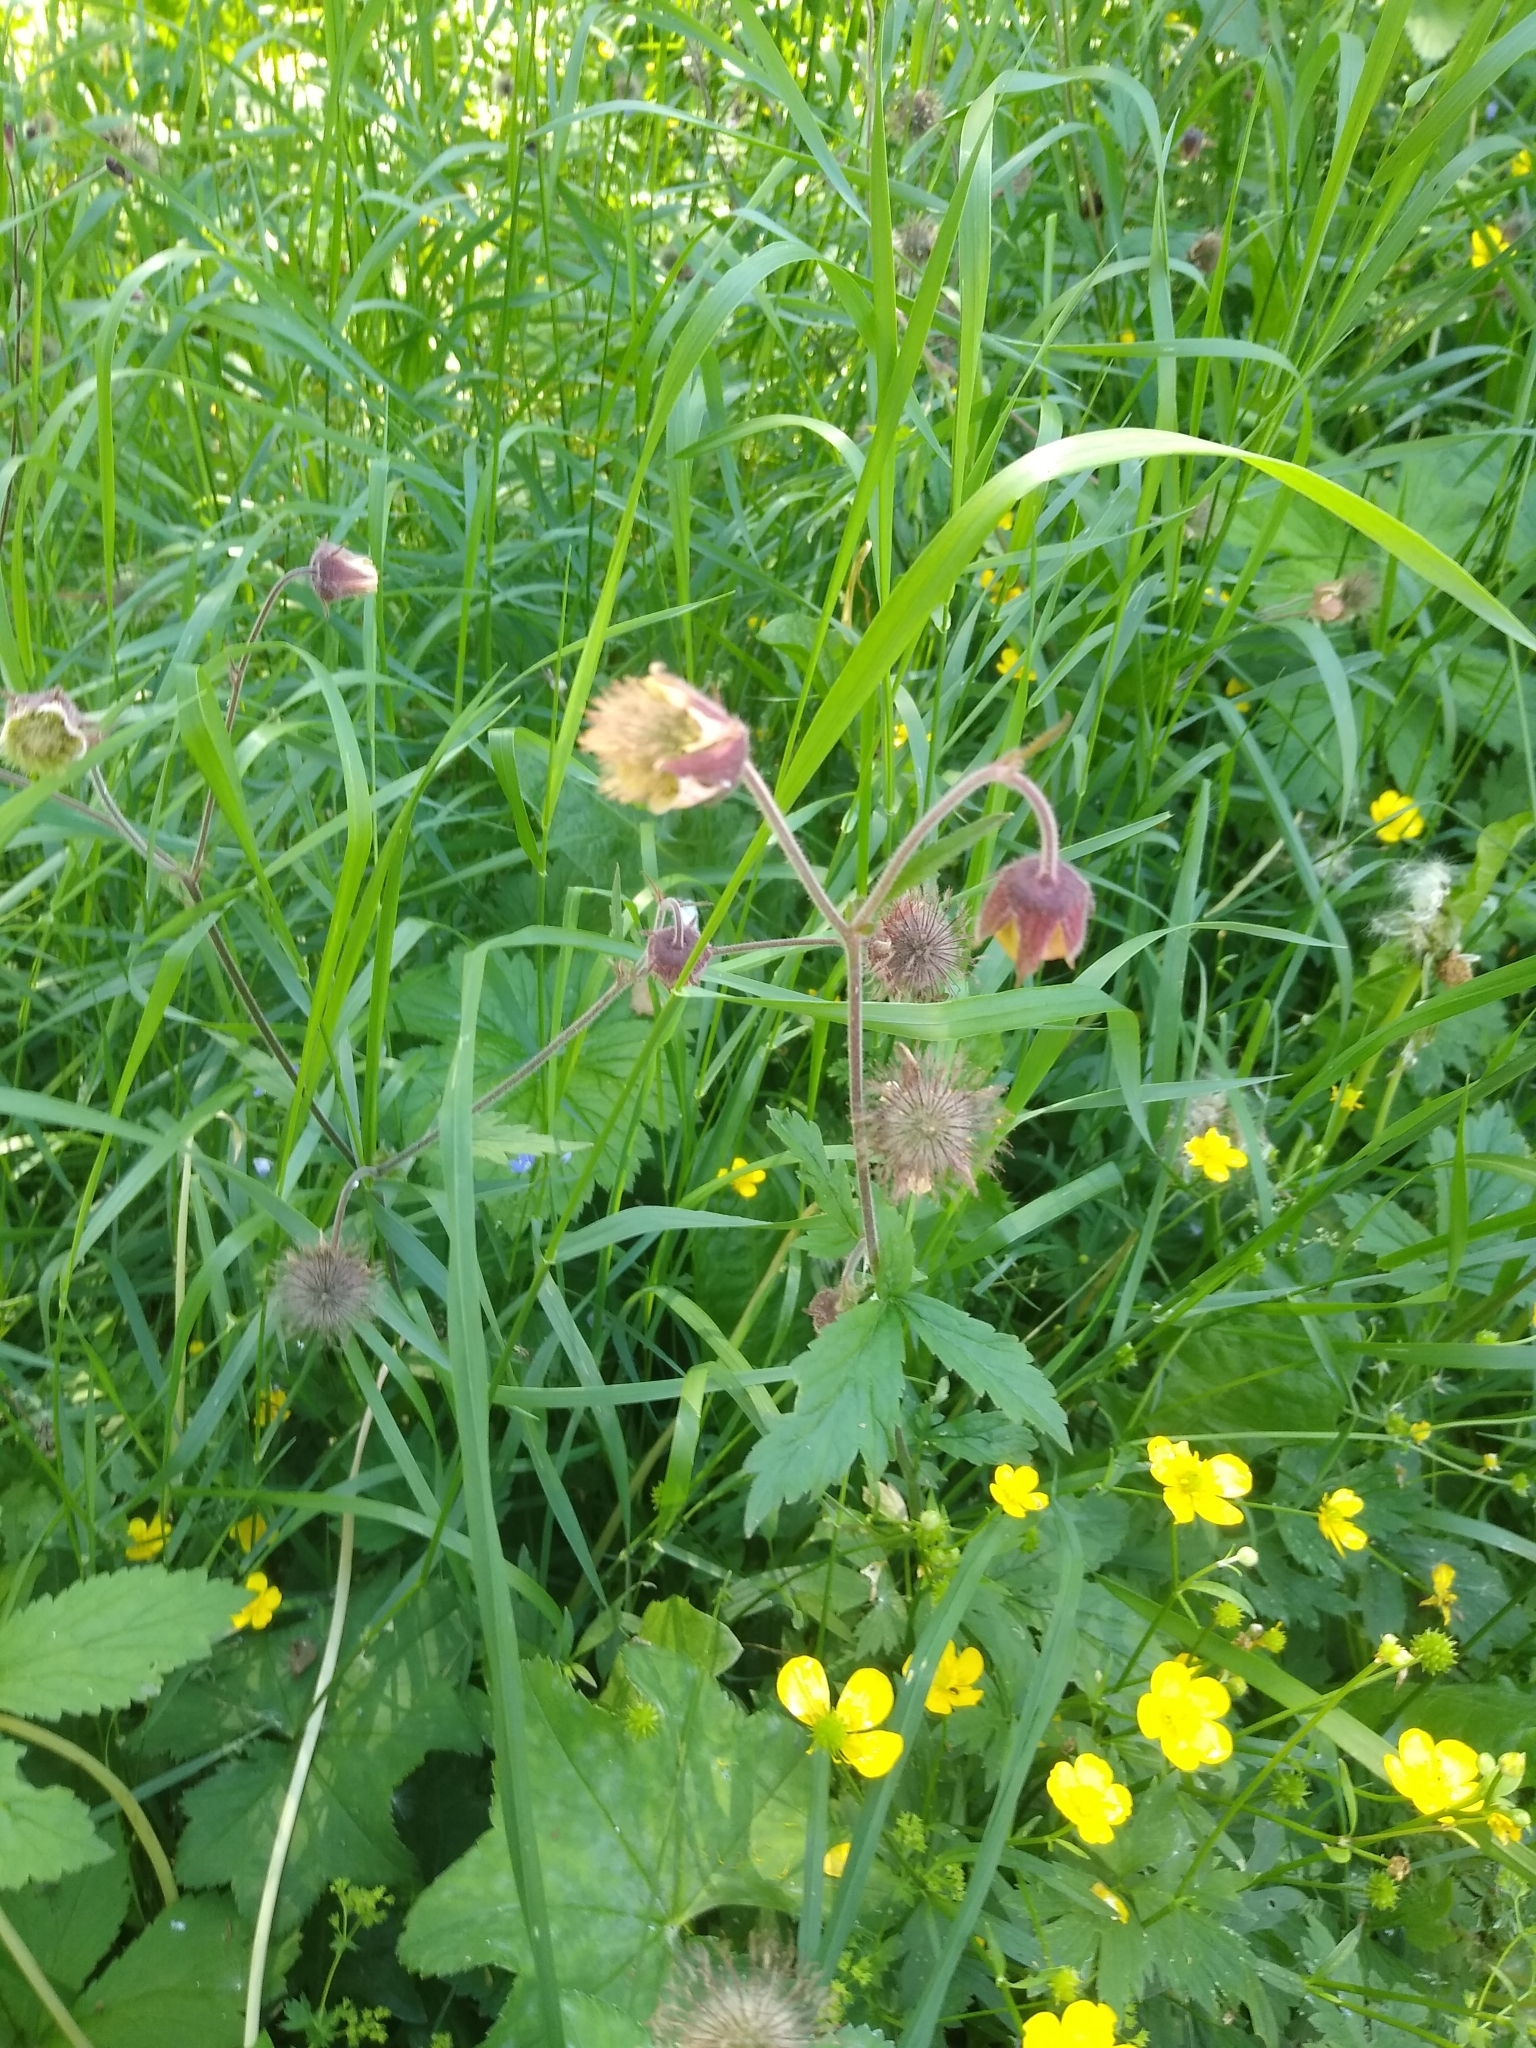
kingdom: Plantae
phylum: Tracheophyta
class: Magnoliopsida
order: Rosales
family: Rosaceae
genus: Geum
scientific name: Geum rivale
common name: Water avens
